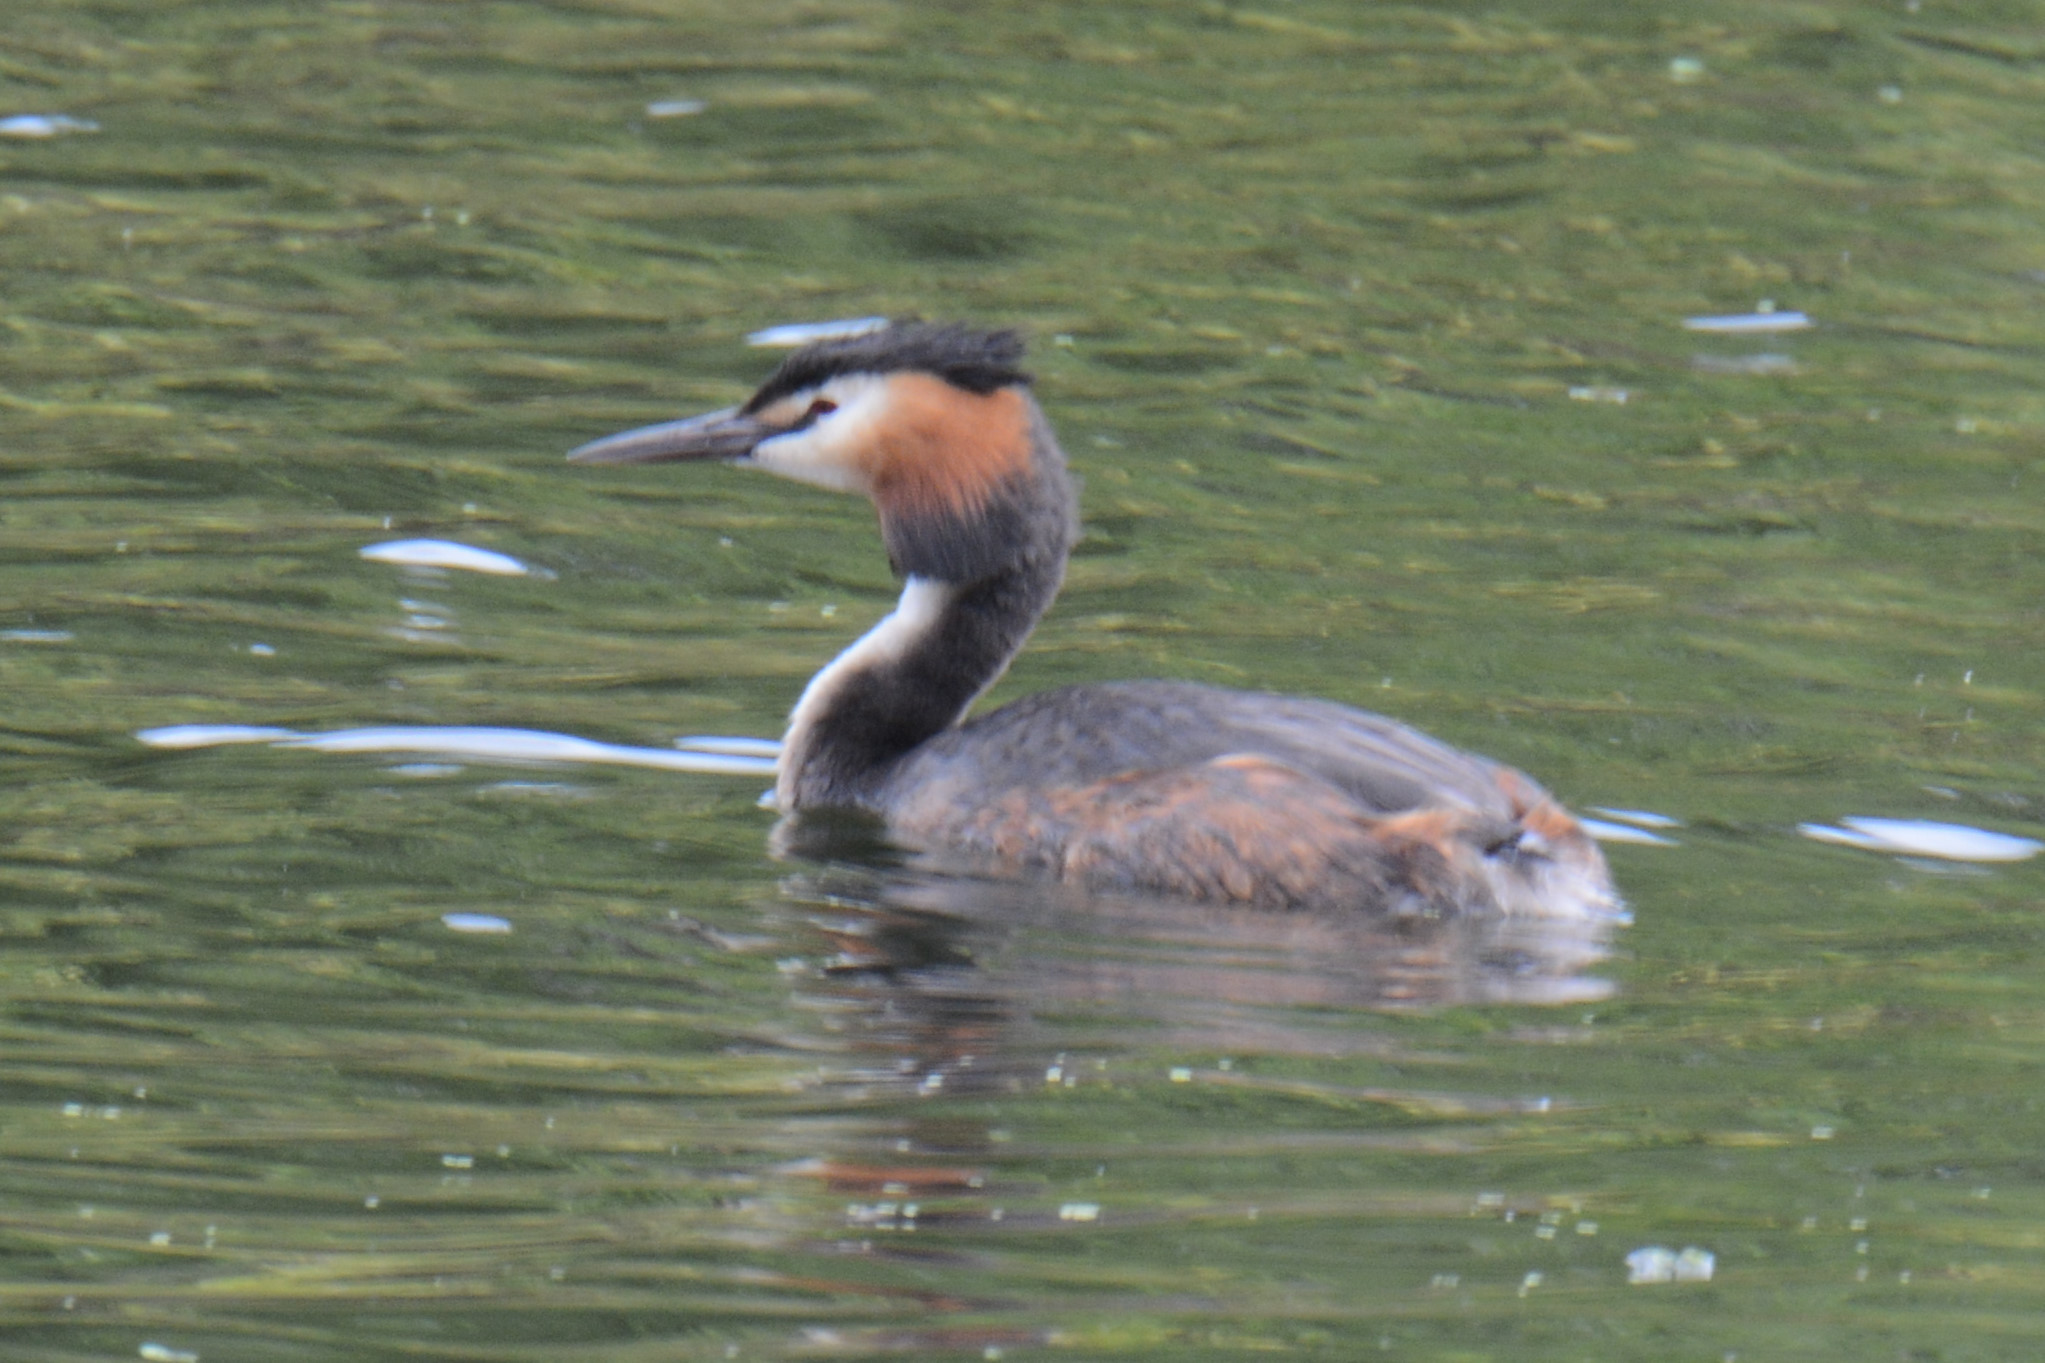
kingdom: Animalia
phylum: Chordata
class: Aves
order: Podicipediformes
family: Podicipedidae
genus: Podiceps
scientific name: Podiceps cristatus
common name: Great crested grebe
